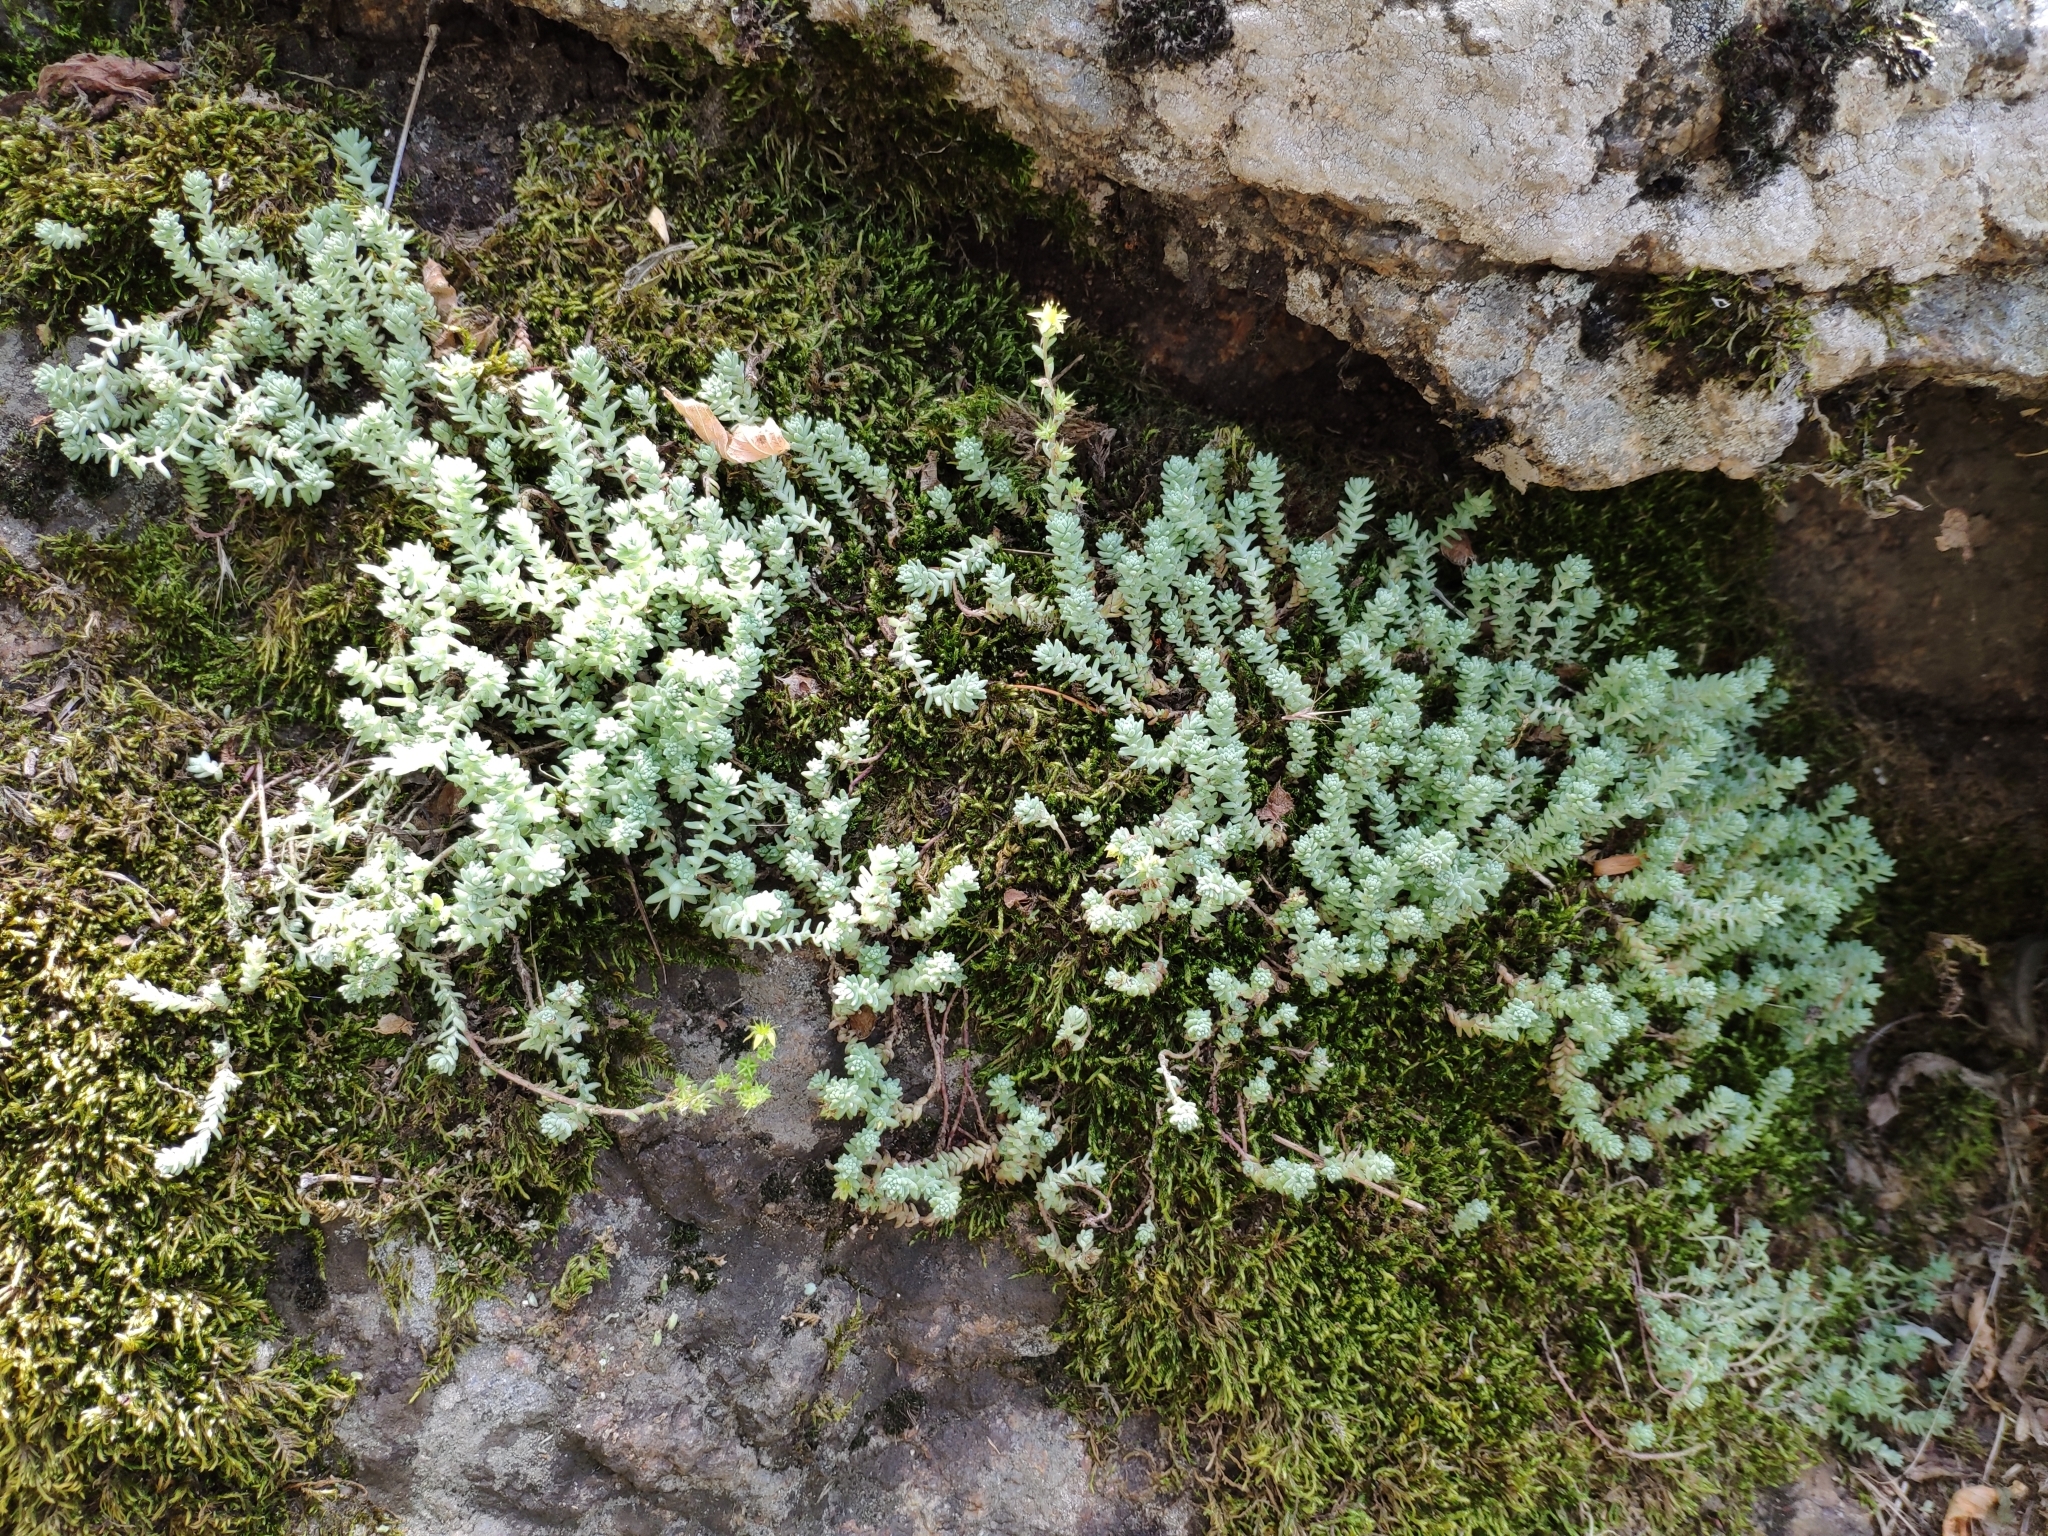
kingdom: Plantae
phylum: Tracheophyta
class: Magnoliopsida
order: Saxifragales
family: Crassulaceae
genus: Sedum
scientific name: Sedum borissovae
